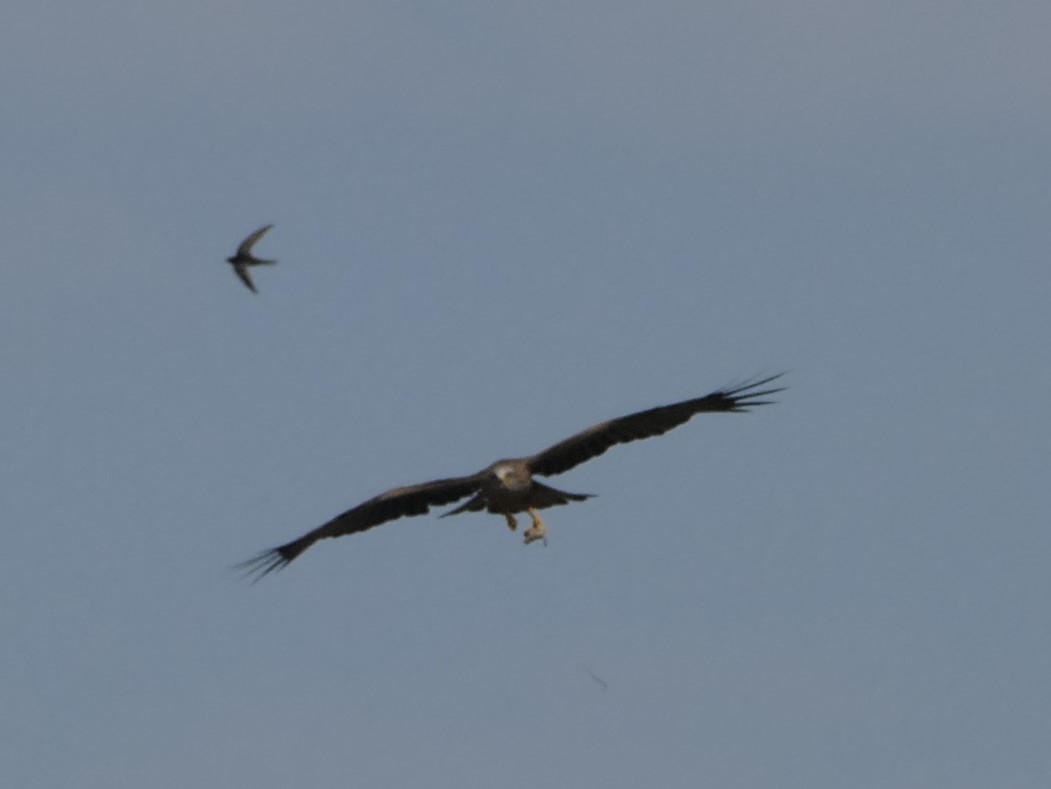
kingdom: Animalia
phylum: Chordata
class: Aves
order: Accipitriformes
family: Accipitridae
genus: Milvus
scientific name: Milvus migrans
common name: Black kite
